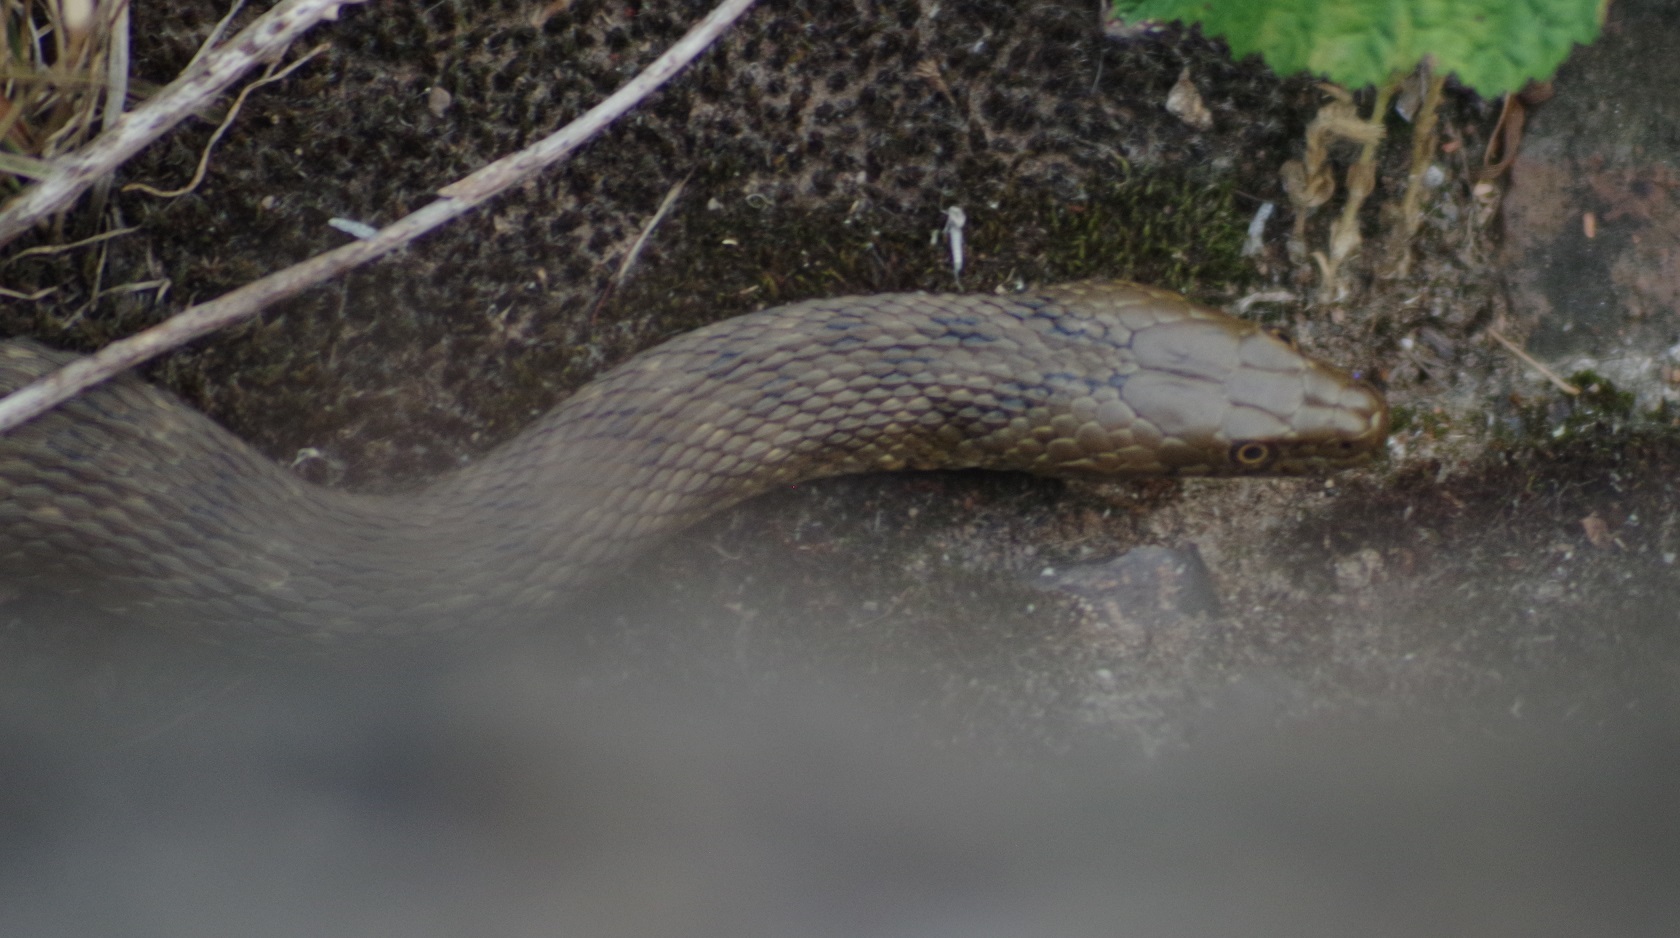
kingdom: Animalia
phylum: Chordata
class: Squamata
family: Colubridae
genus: Natrix
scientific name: Natrix tessellata
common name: Dice snake
